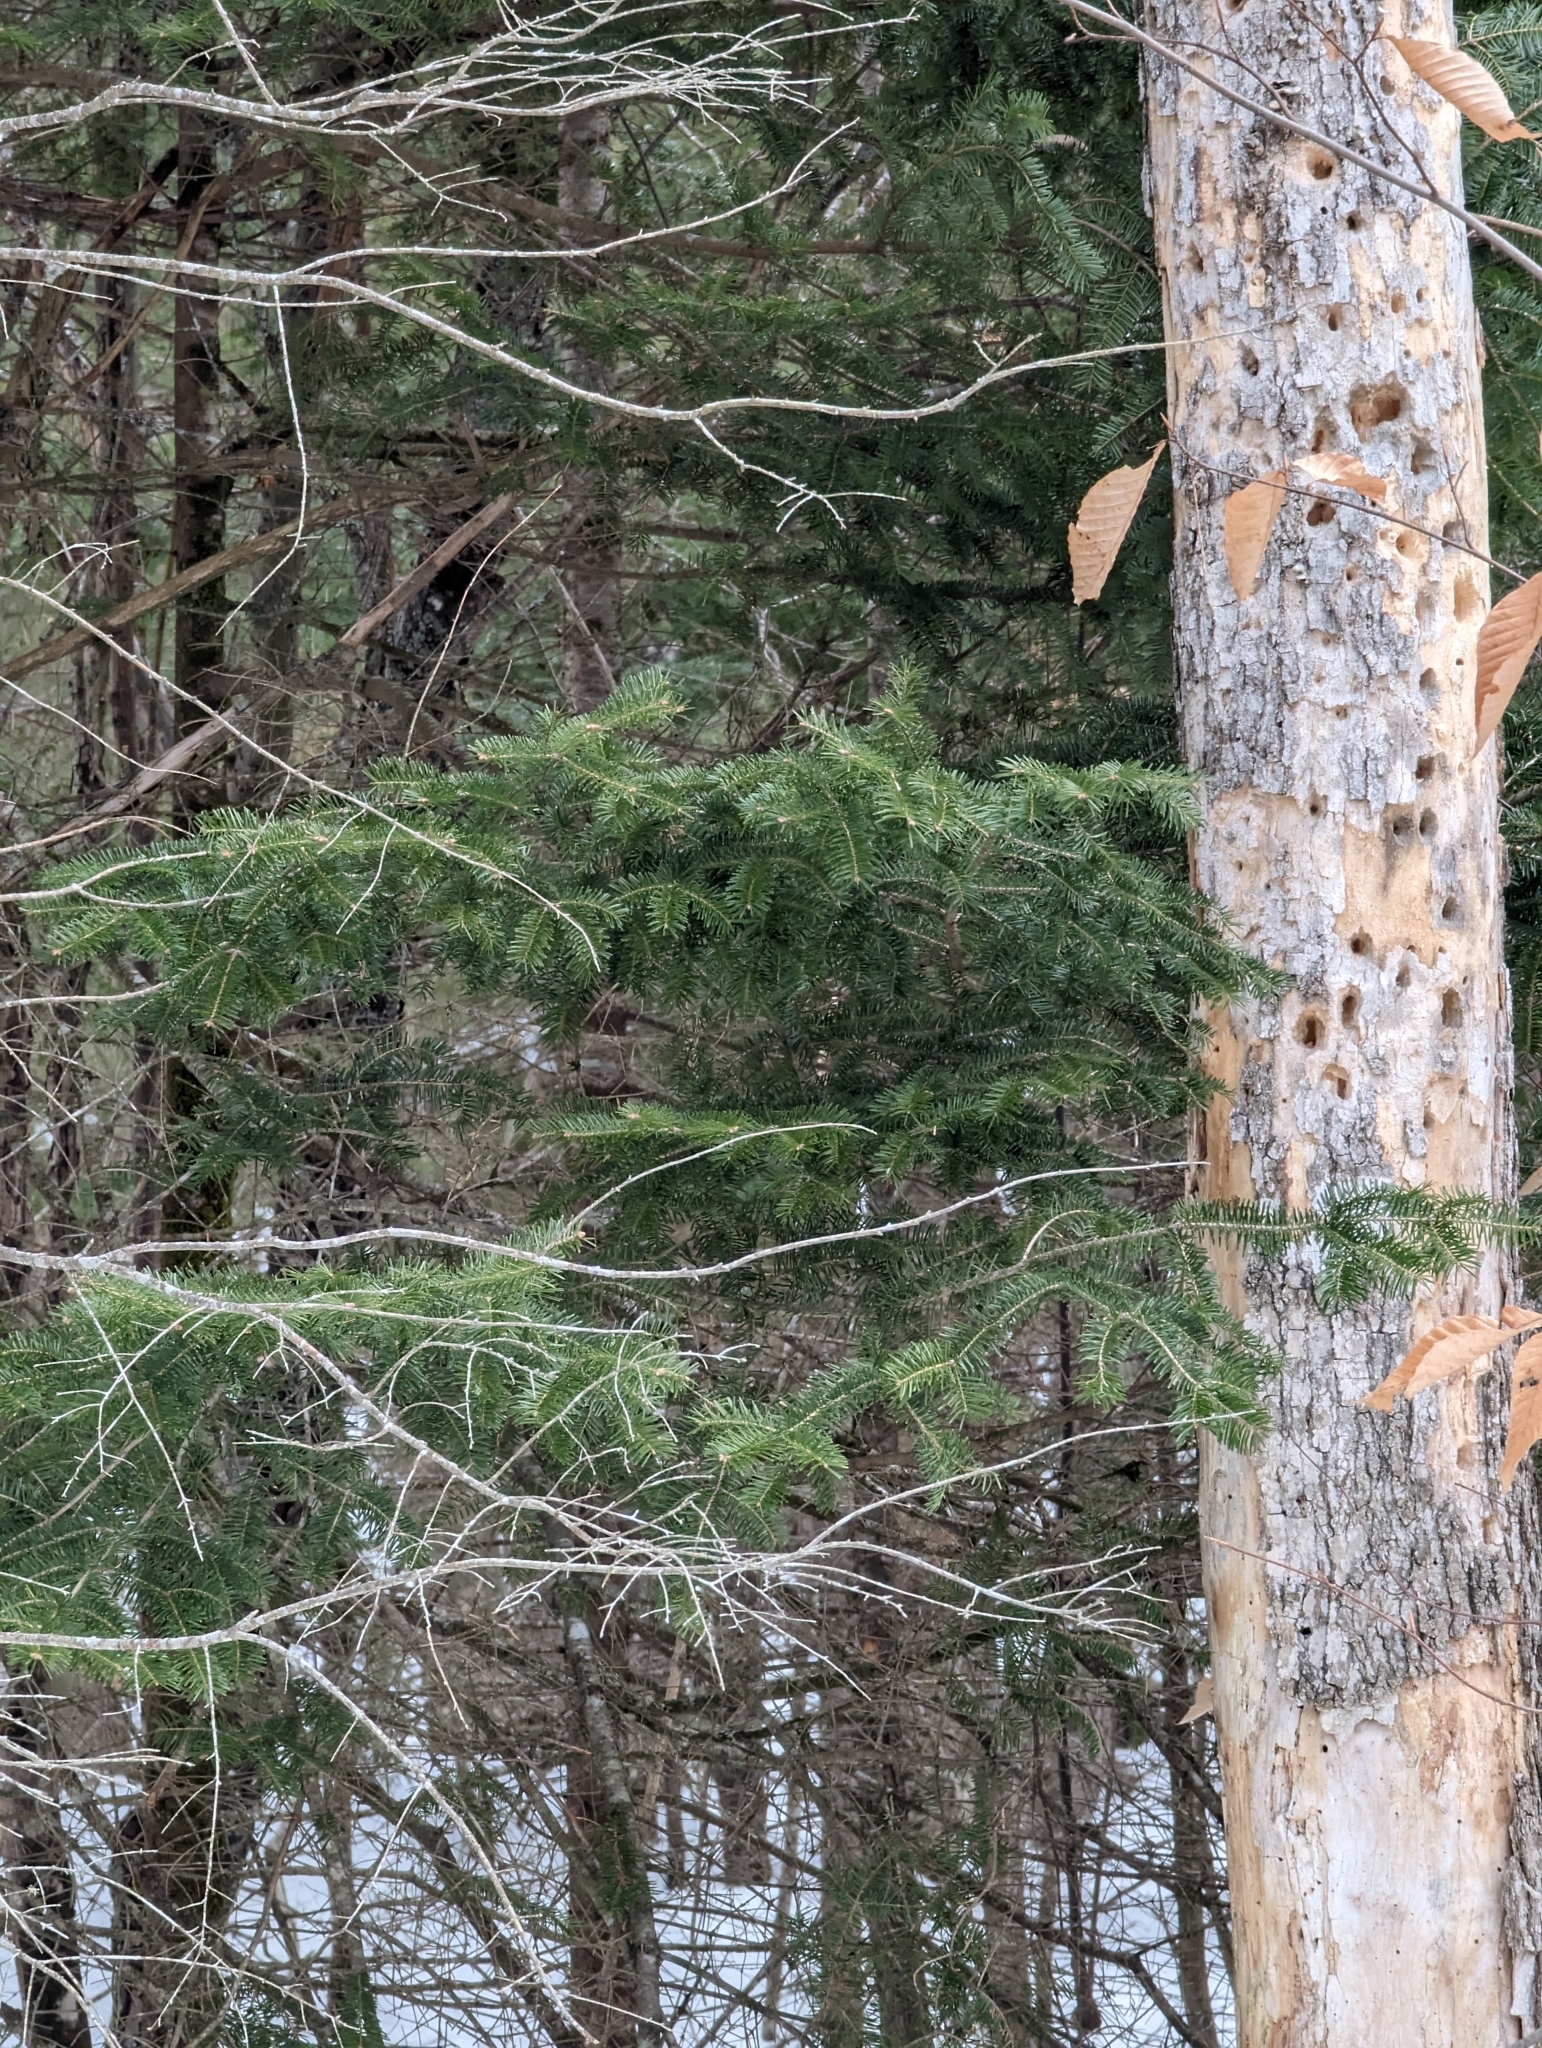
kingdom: Plantae
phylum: Tracheophyta
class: Pinopsida
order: Pinales
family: Pinaceae
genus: Abies
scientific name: Abies balsamea
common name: Balsam fir
